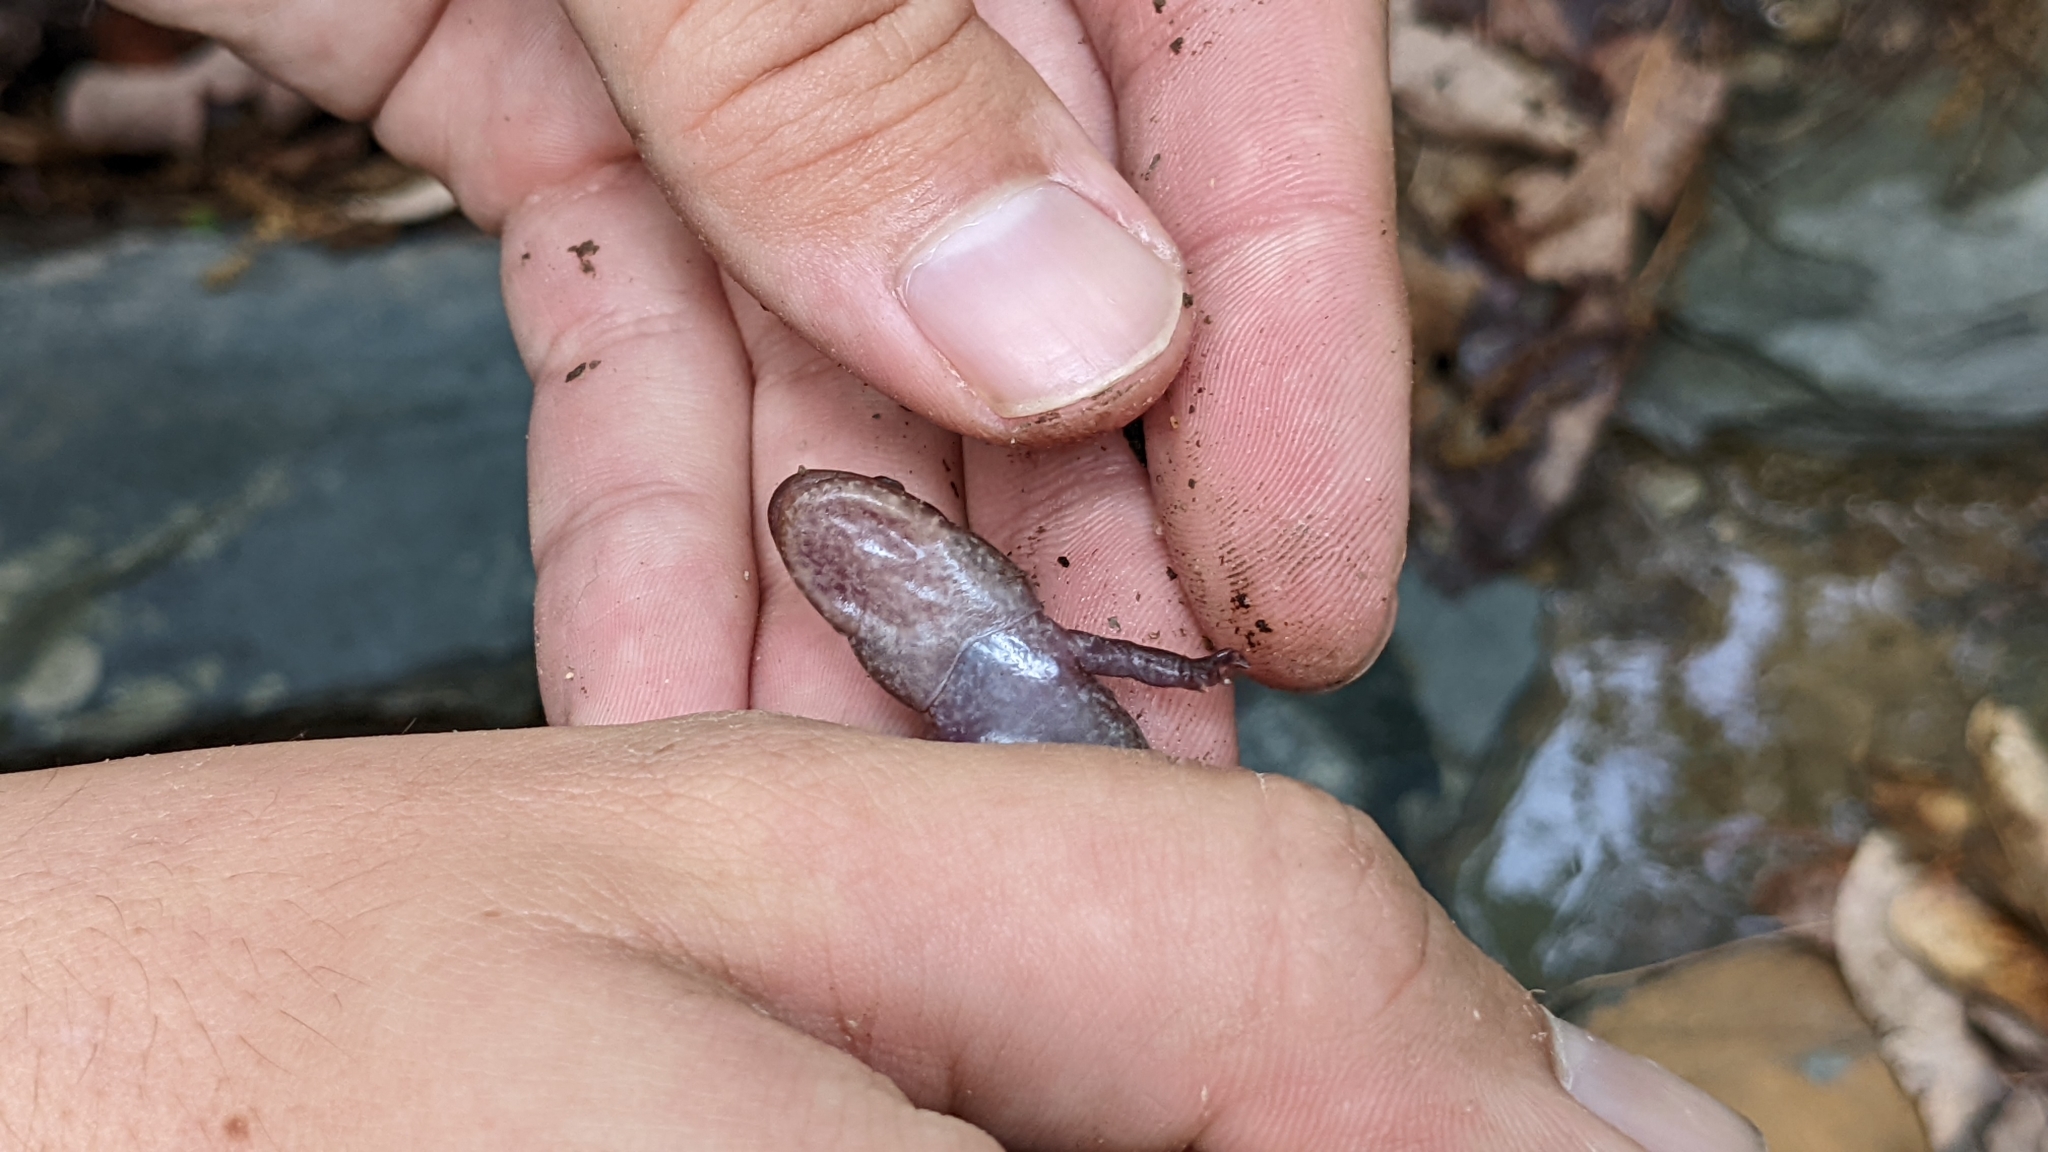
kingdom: Animalia
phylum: Chordata
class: Amphibia
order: Caudata
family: Plethodontidae
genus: Desmognathus
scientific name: Desmognathus brimleyorum
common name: Ouachita dusky salamander
